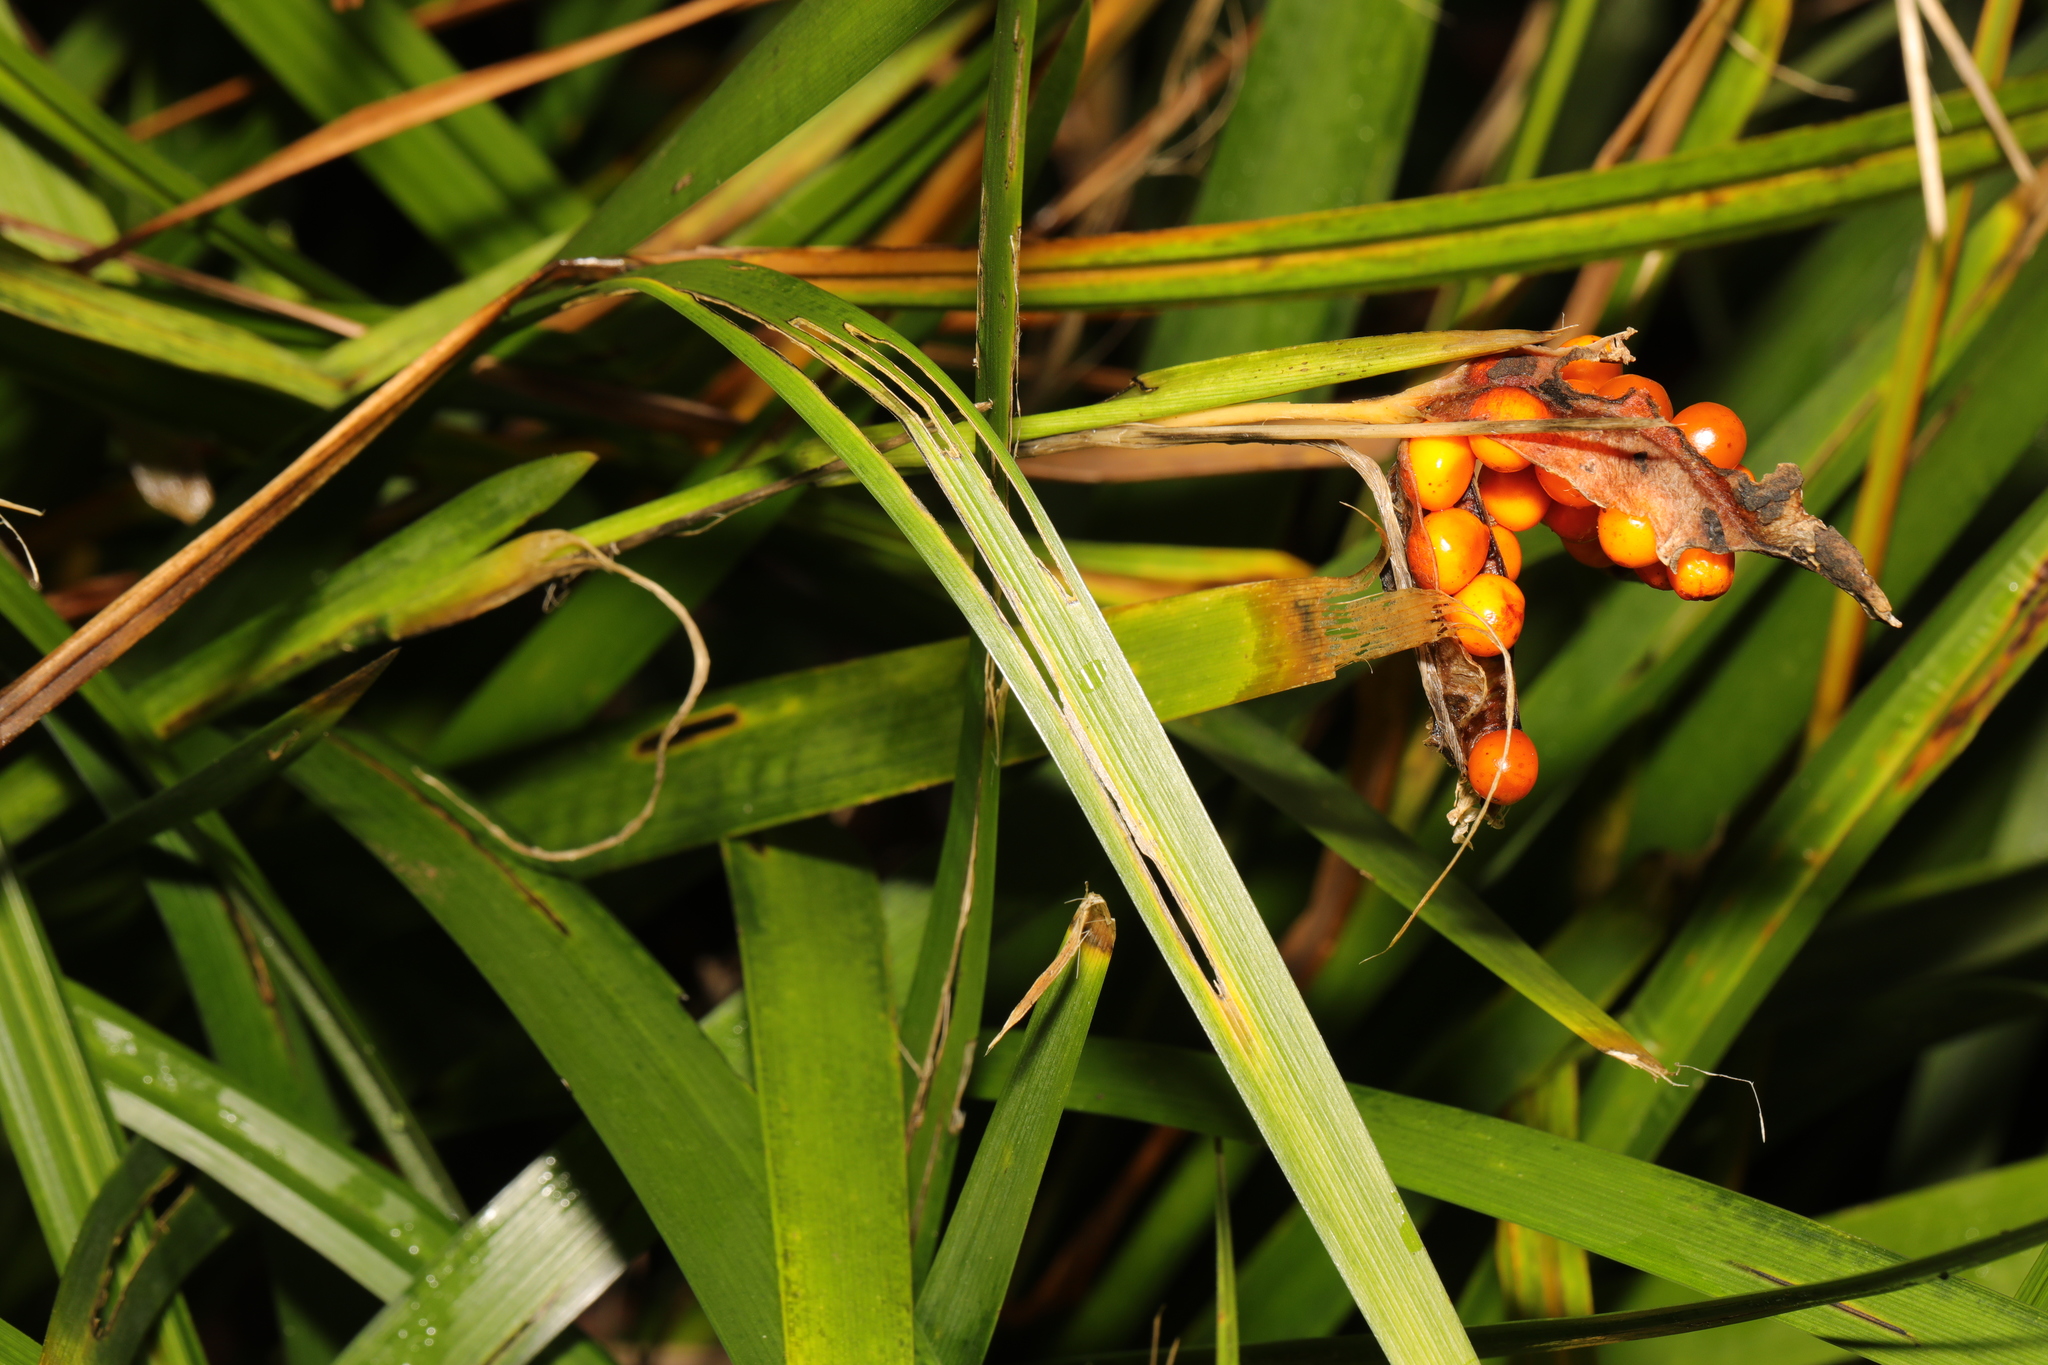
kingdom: Plantae
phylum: Tracheophyta
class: Liliopsida
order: Asparagales
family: Iridaceae
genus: Iris
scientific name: Iris foetidissima
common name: Stinking iris
